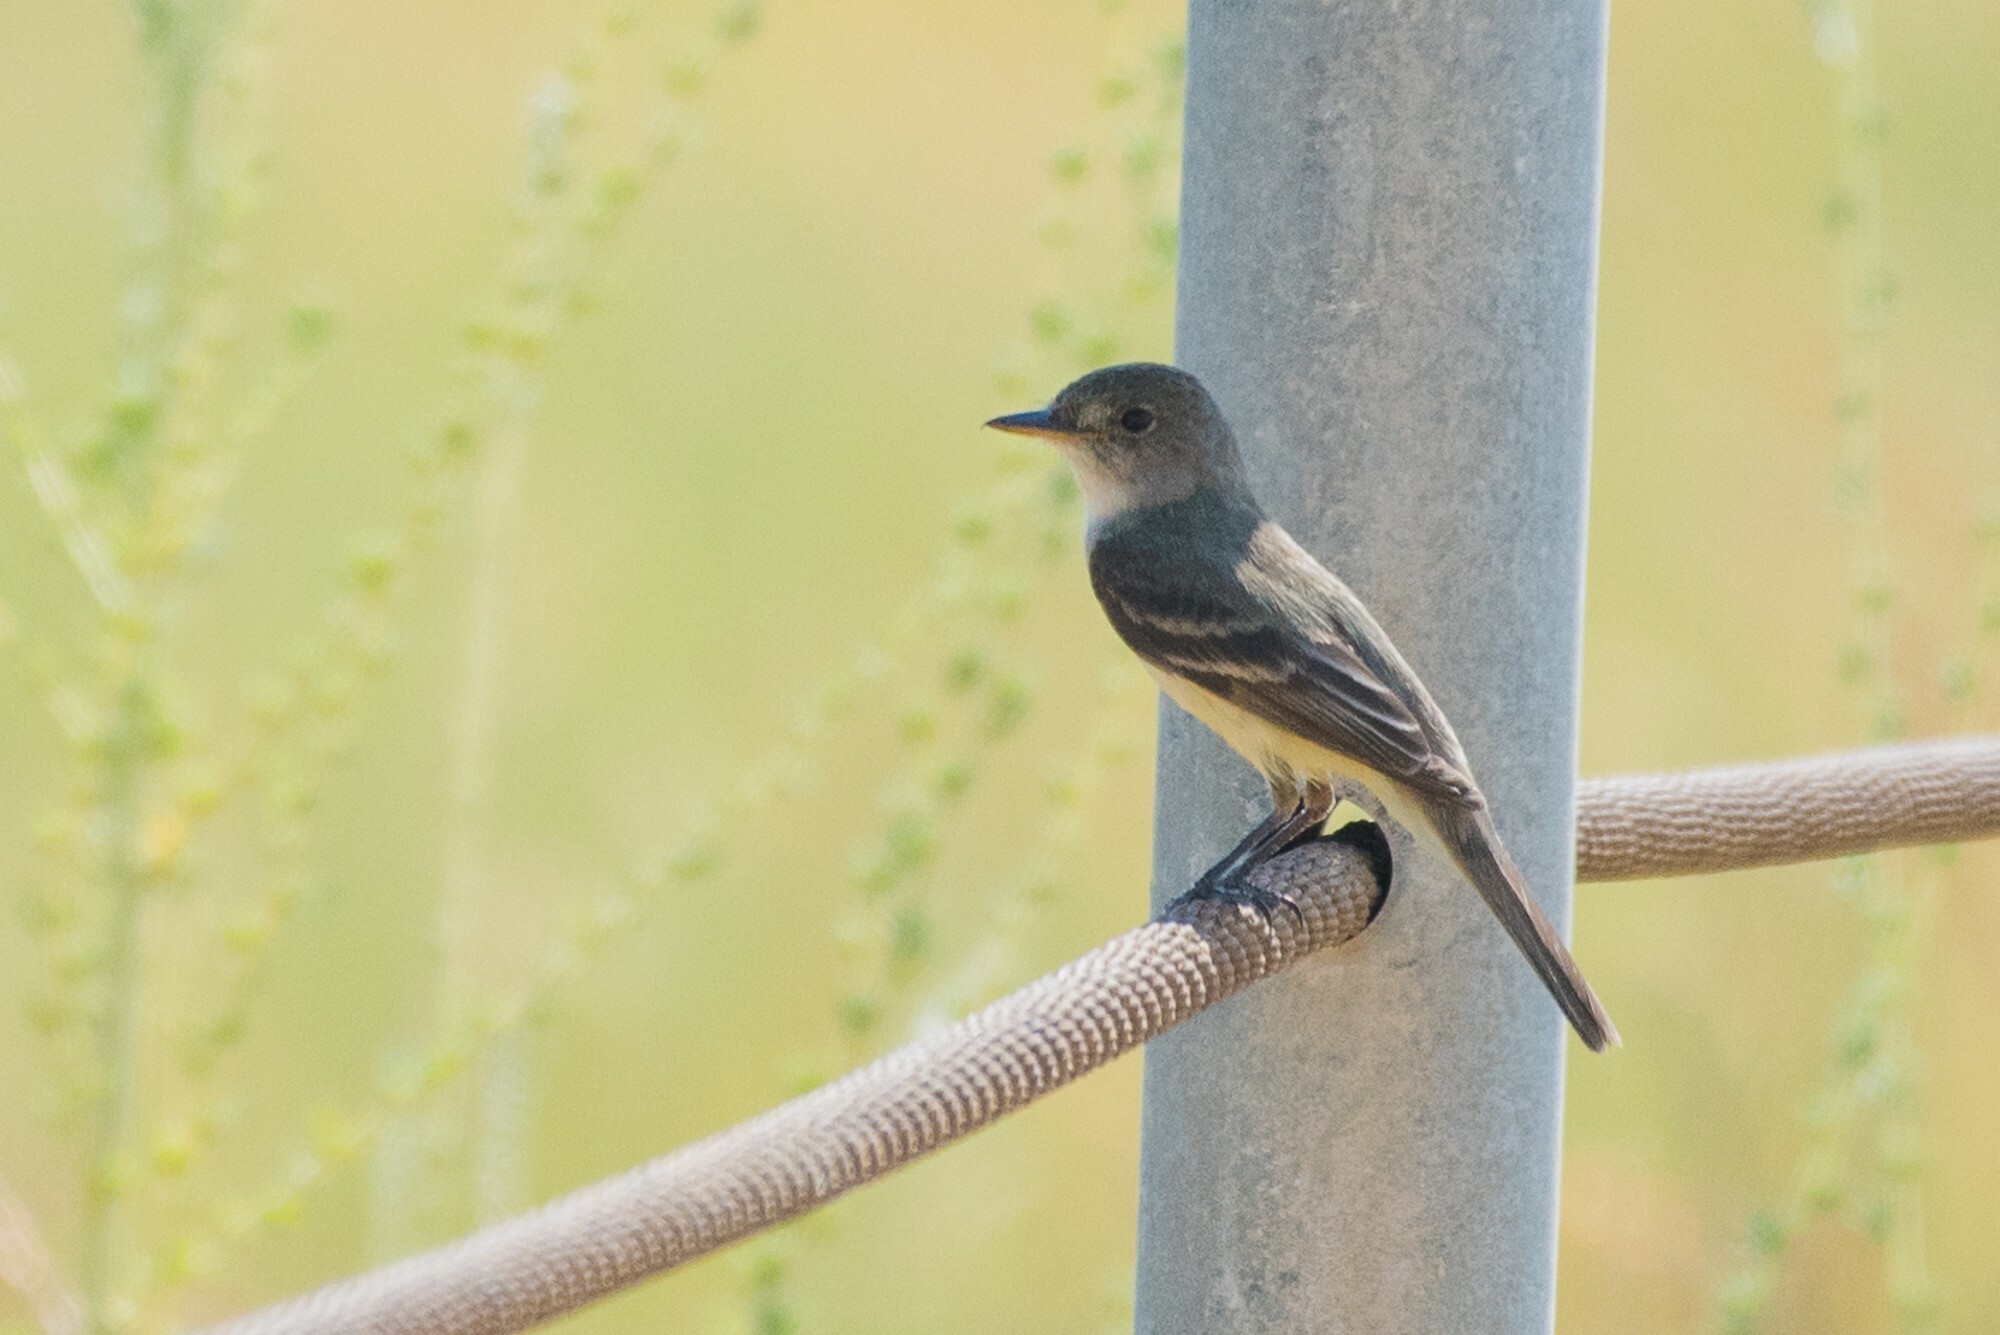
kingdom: Animalia
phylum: Chordata
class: Aves
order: Passeriformes
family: Tyrannidae
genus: Empidonax
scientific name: Empidonax traillii
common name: Willow flycatcher
